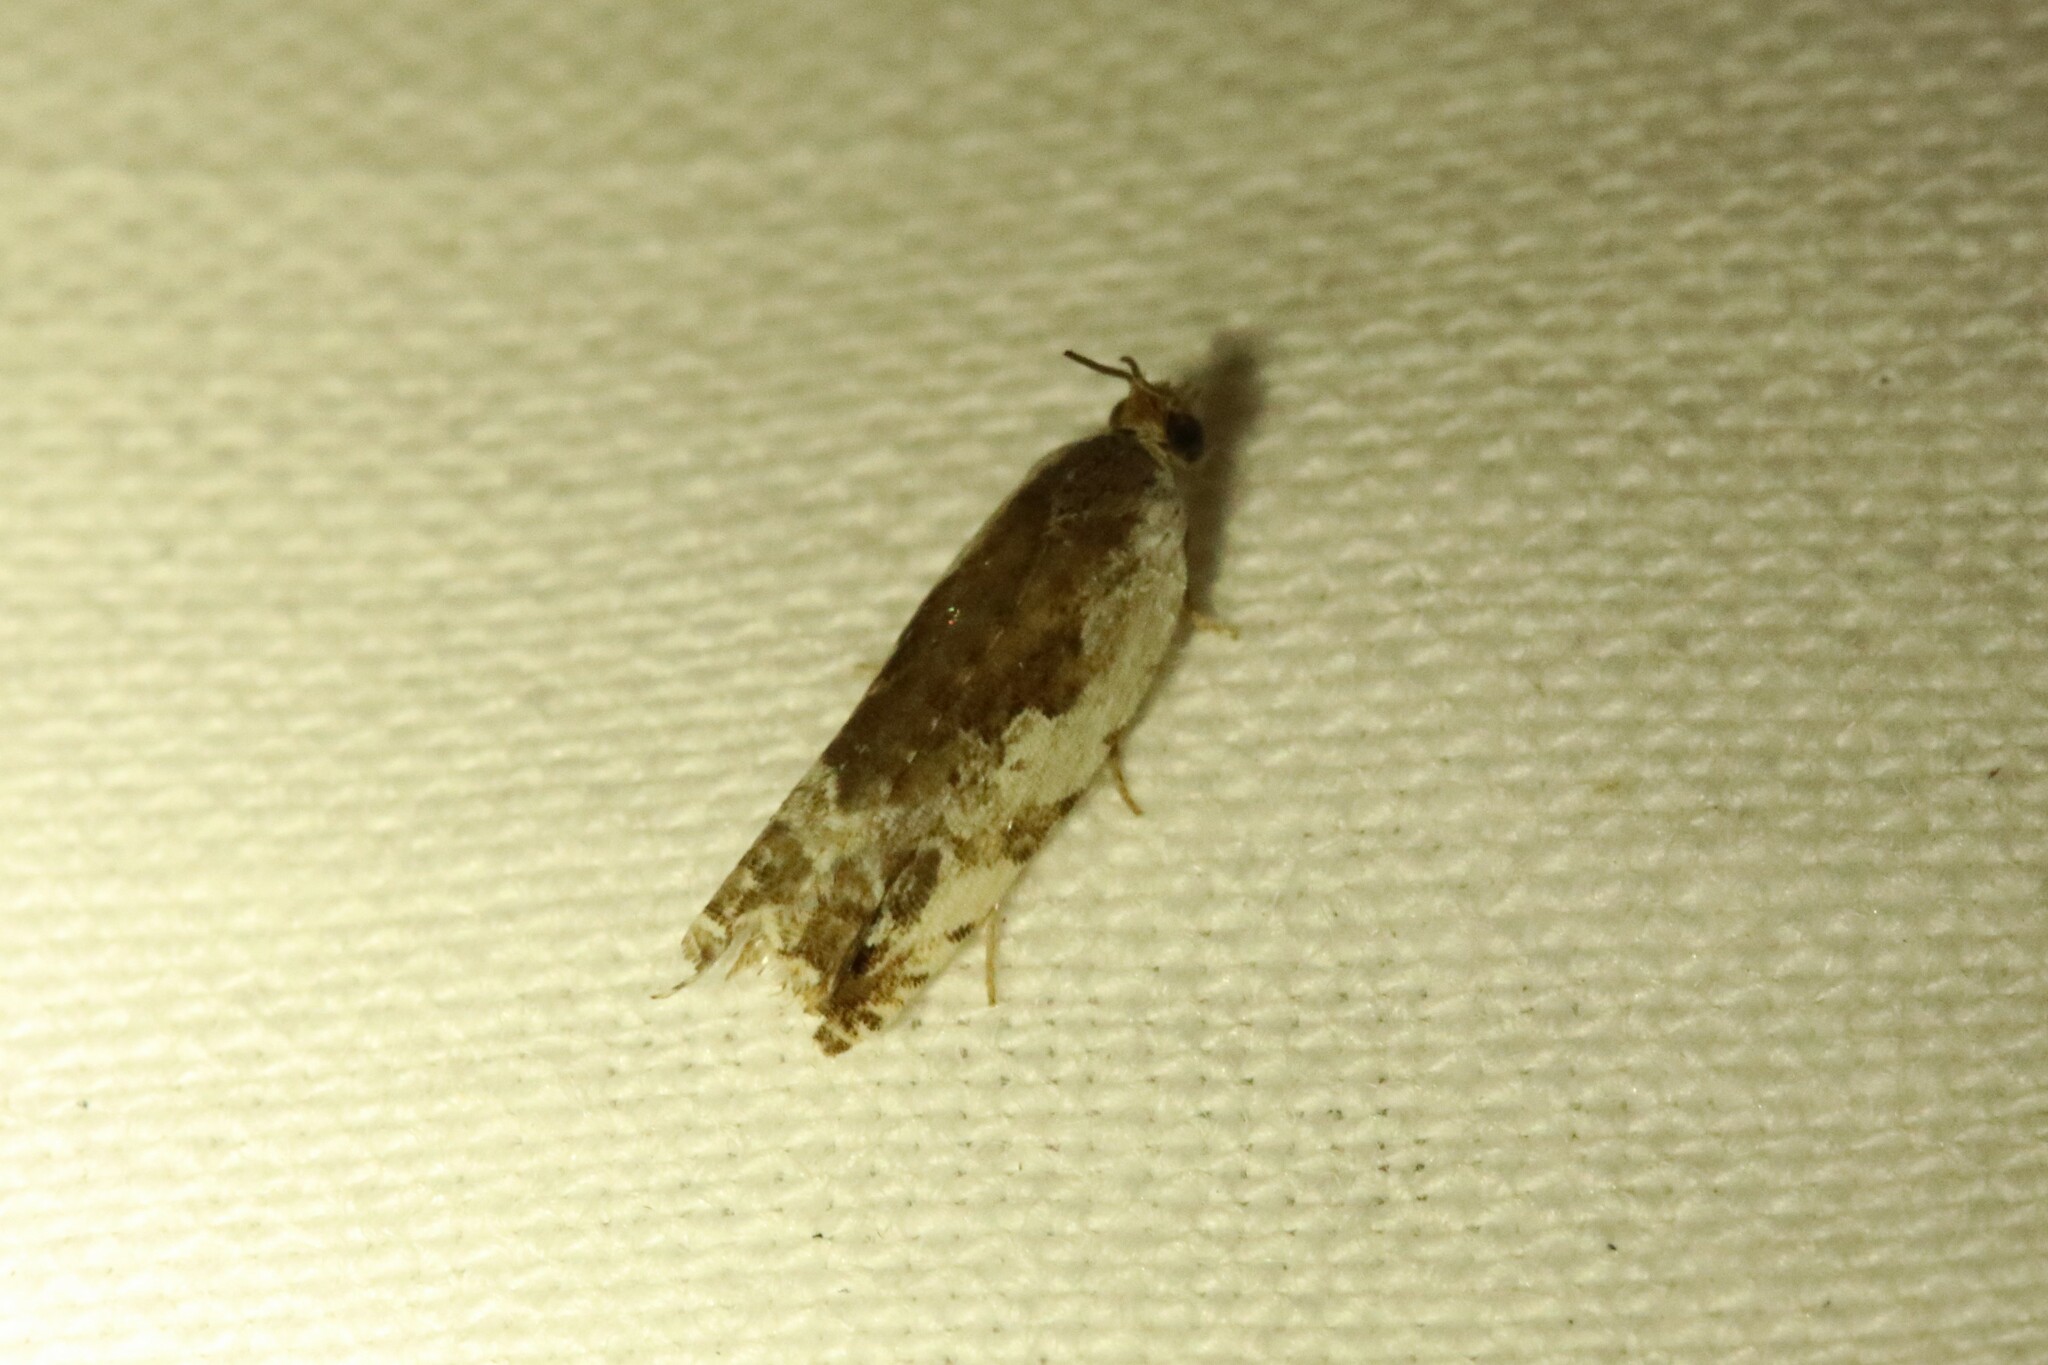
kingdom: Animalia
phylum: Arthropoda
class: Insecta
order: Lepidoptera
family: Tortricidae
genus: Ancylis
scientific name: Ancylis nubeculana
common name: Little cloud ancylis moth
